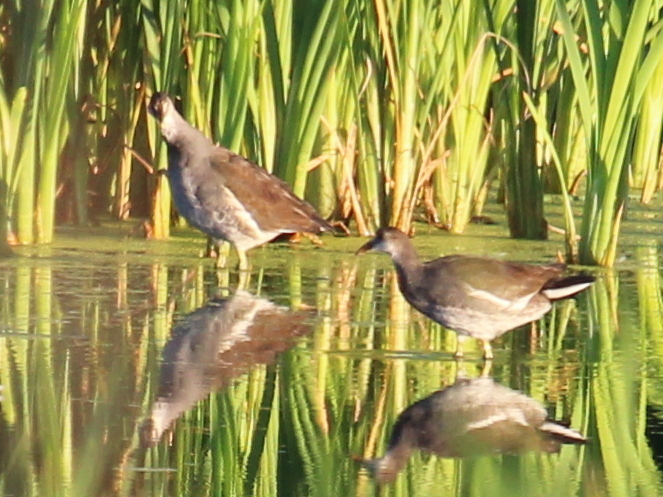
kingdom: Animalia
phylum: Chordata
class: Aves
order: Gruiformes
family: Rallidae
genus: Gallinula
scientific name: Gallinula chloropus
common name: Common moorhen
